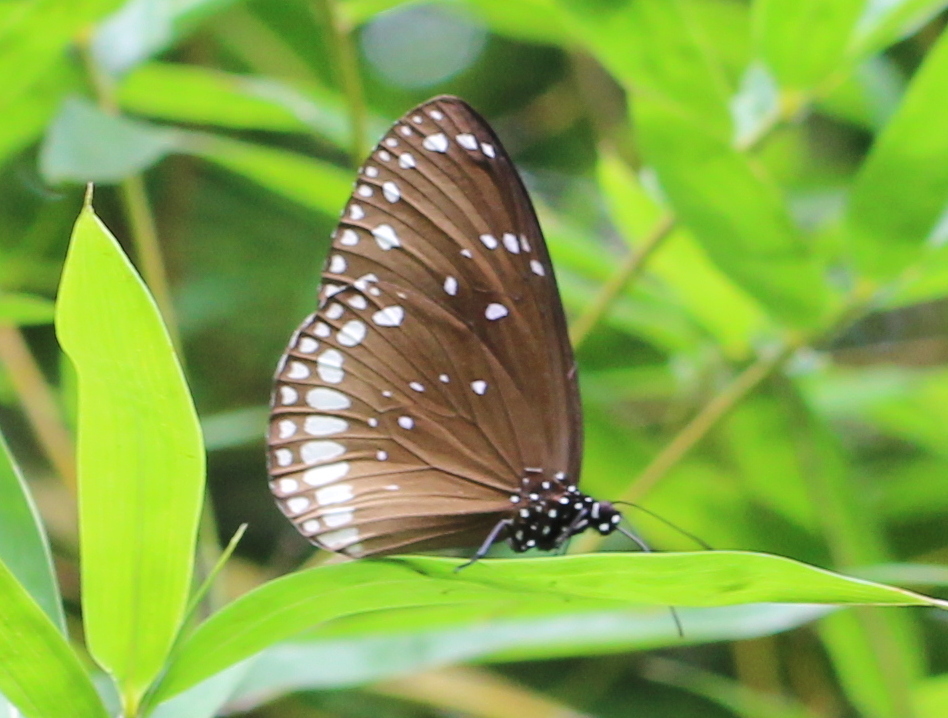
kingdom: Animalia
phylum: Arthropoda
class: Insecta
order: Lepidoptera
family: Nymphalidae
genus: Euploea
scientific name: Euploea sylvester
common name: Double-branded crow butterfly
